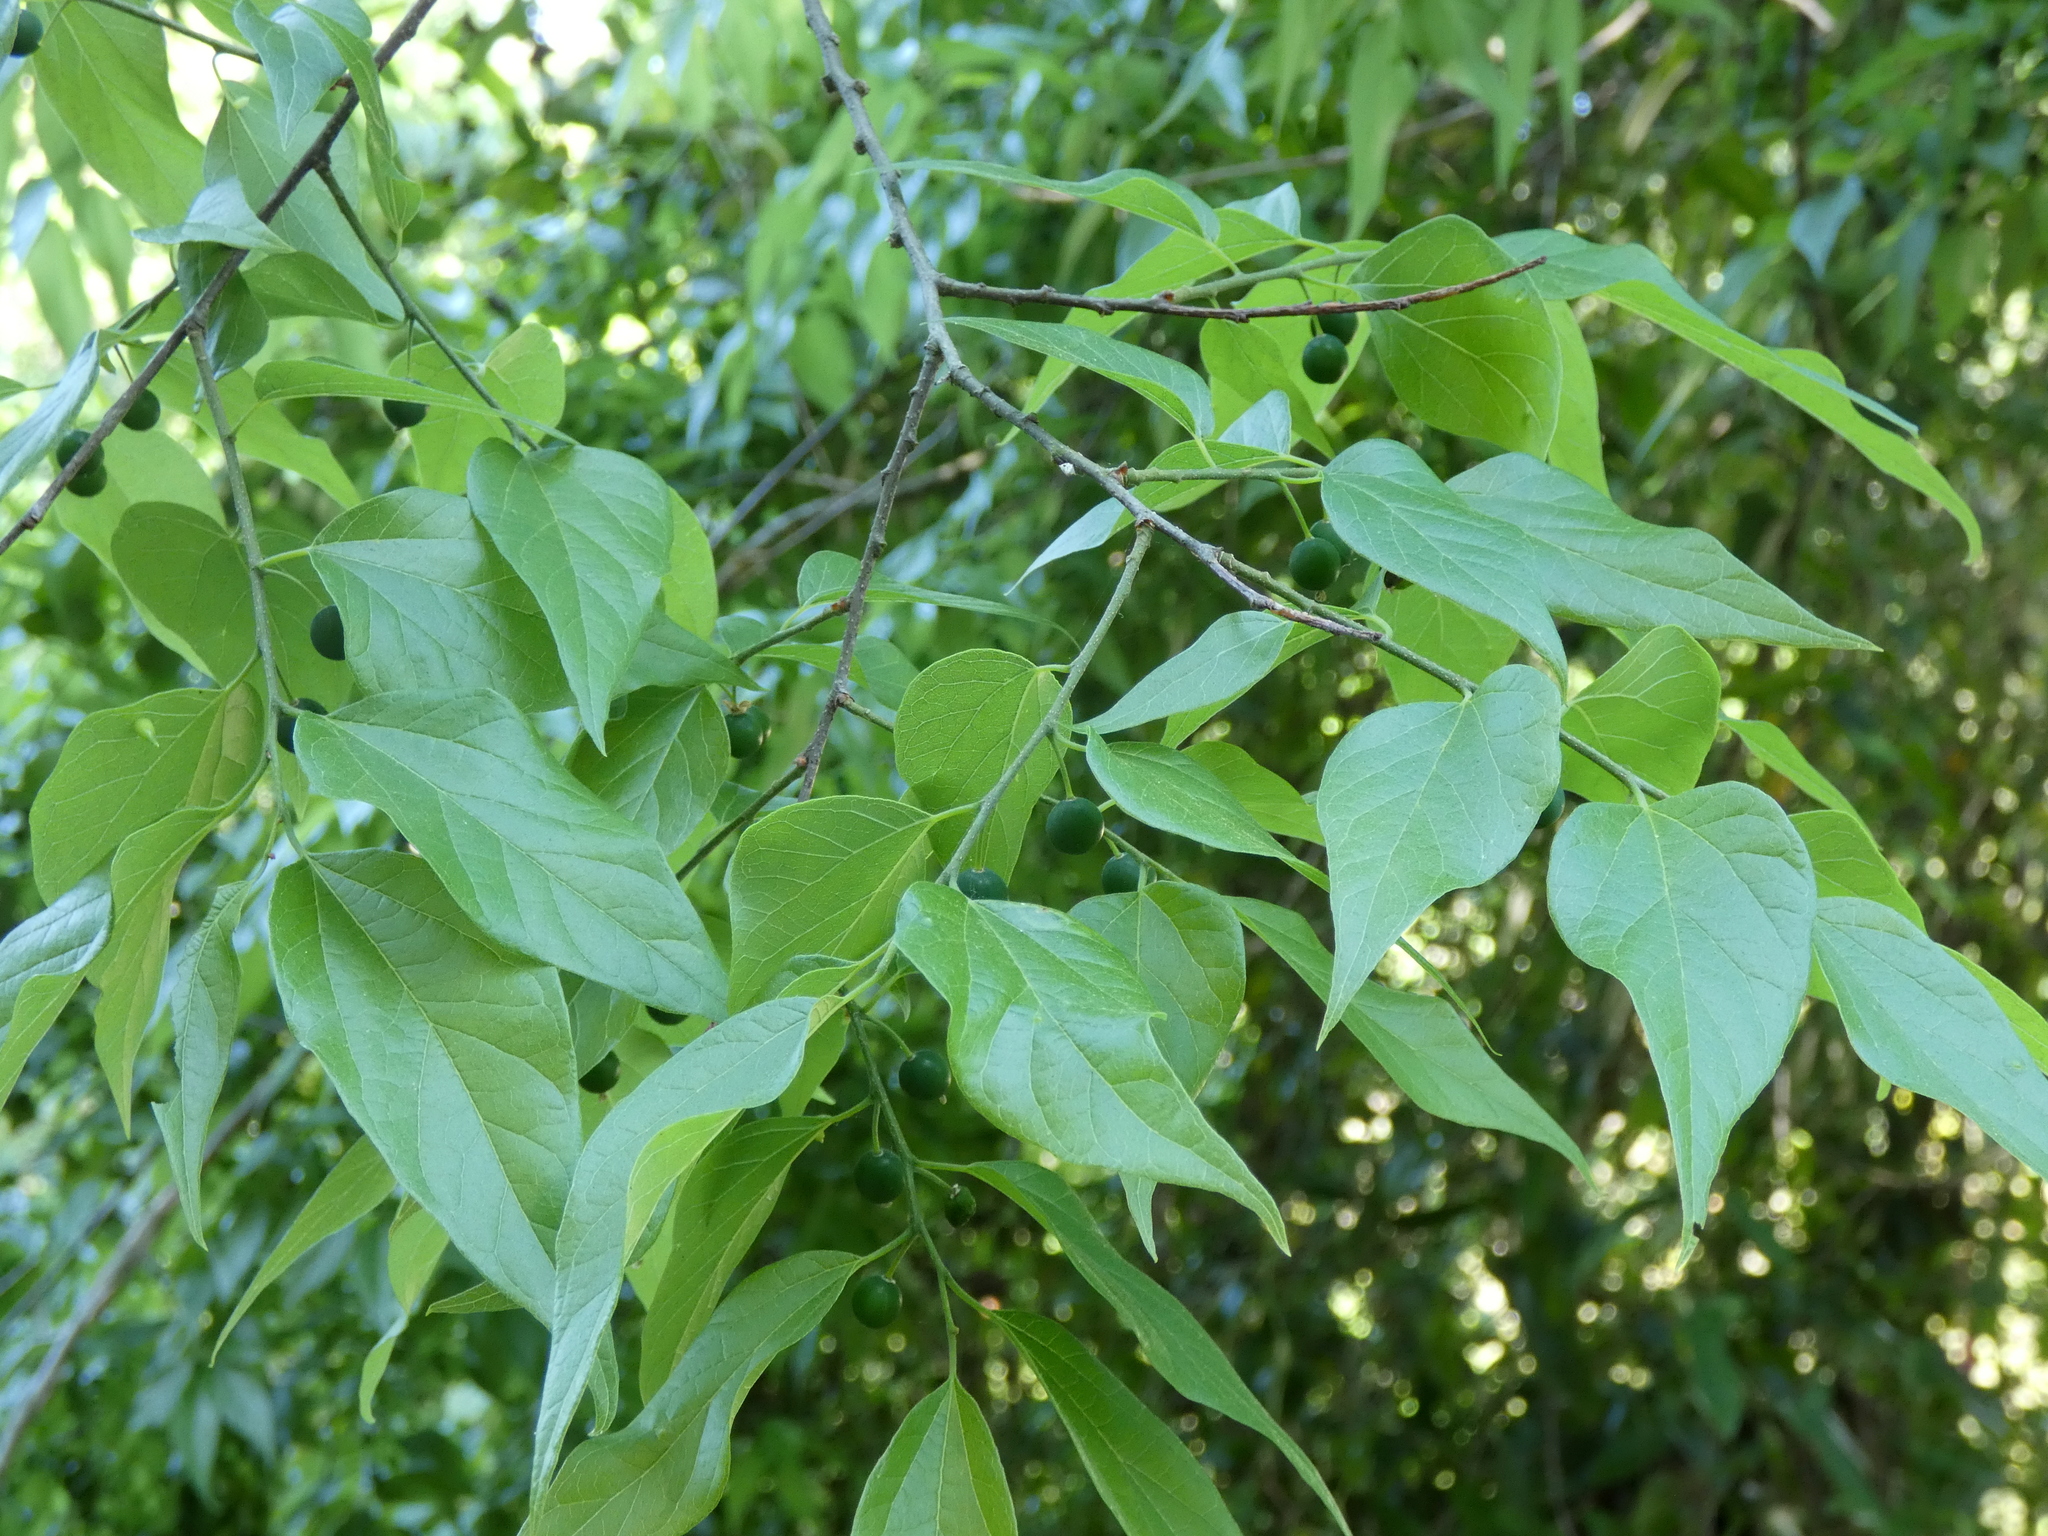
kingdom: Plantae
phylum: Tracheophyta
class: Magnoliopsida
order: Rosales
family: Cannabaceae
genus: Celtis
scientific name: Celtis laevigata
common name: Sugarberry
